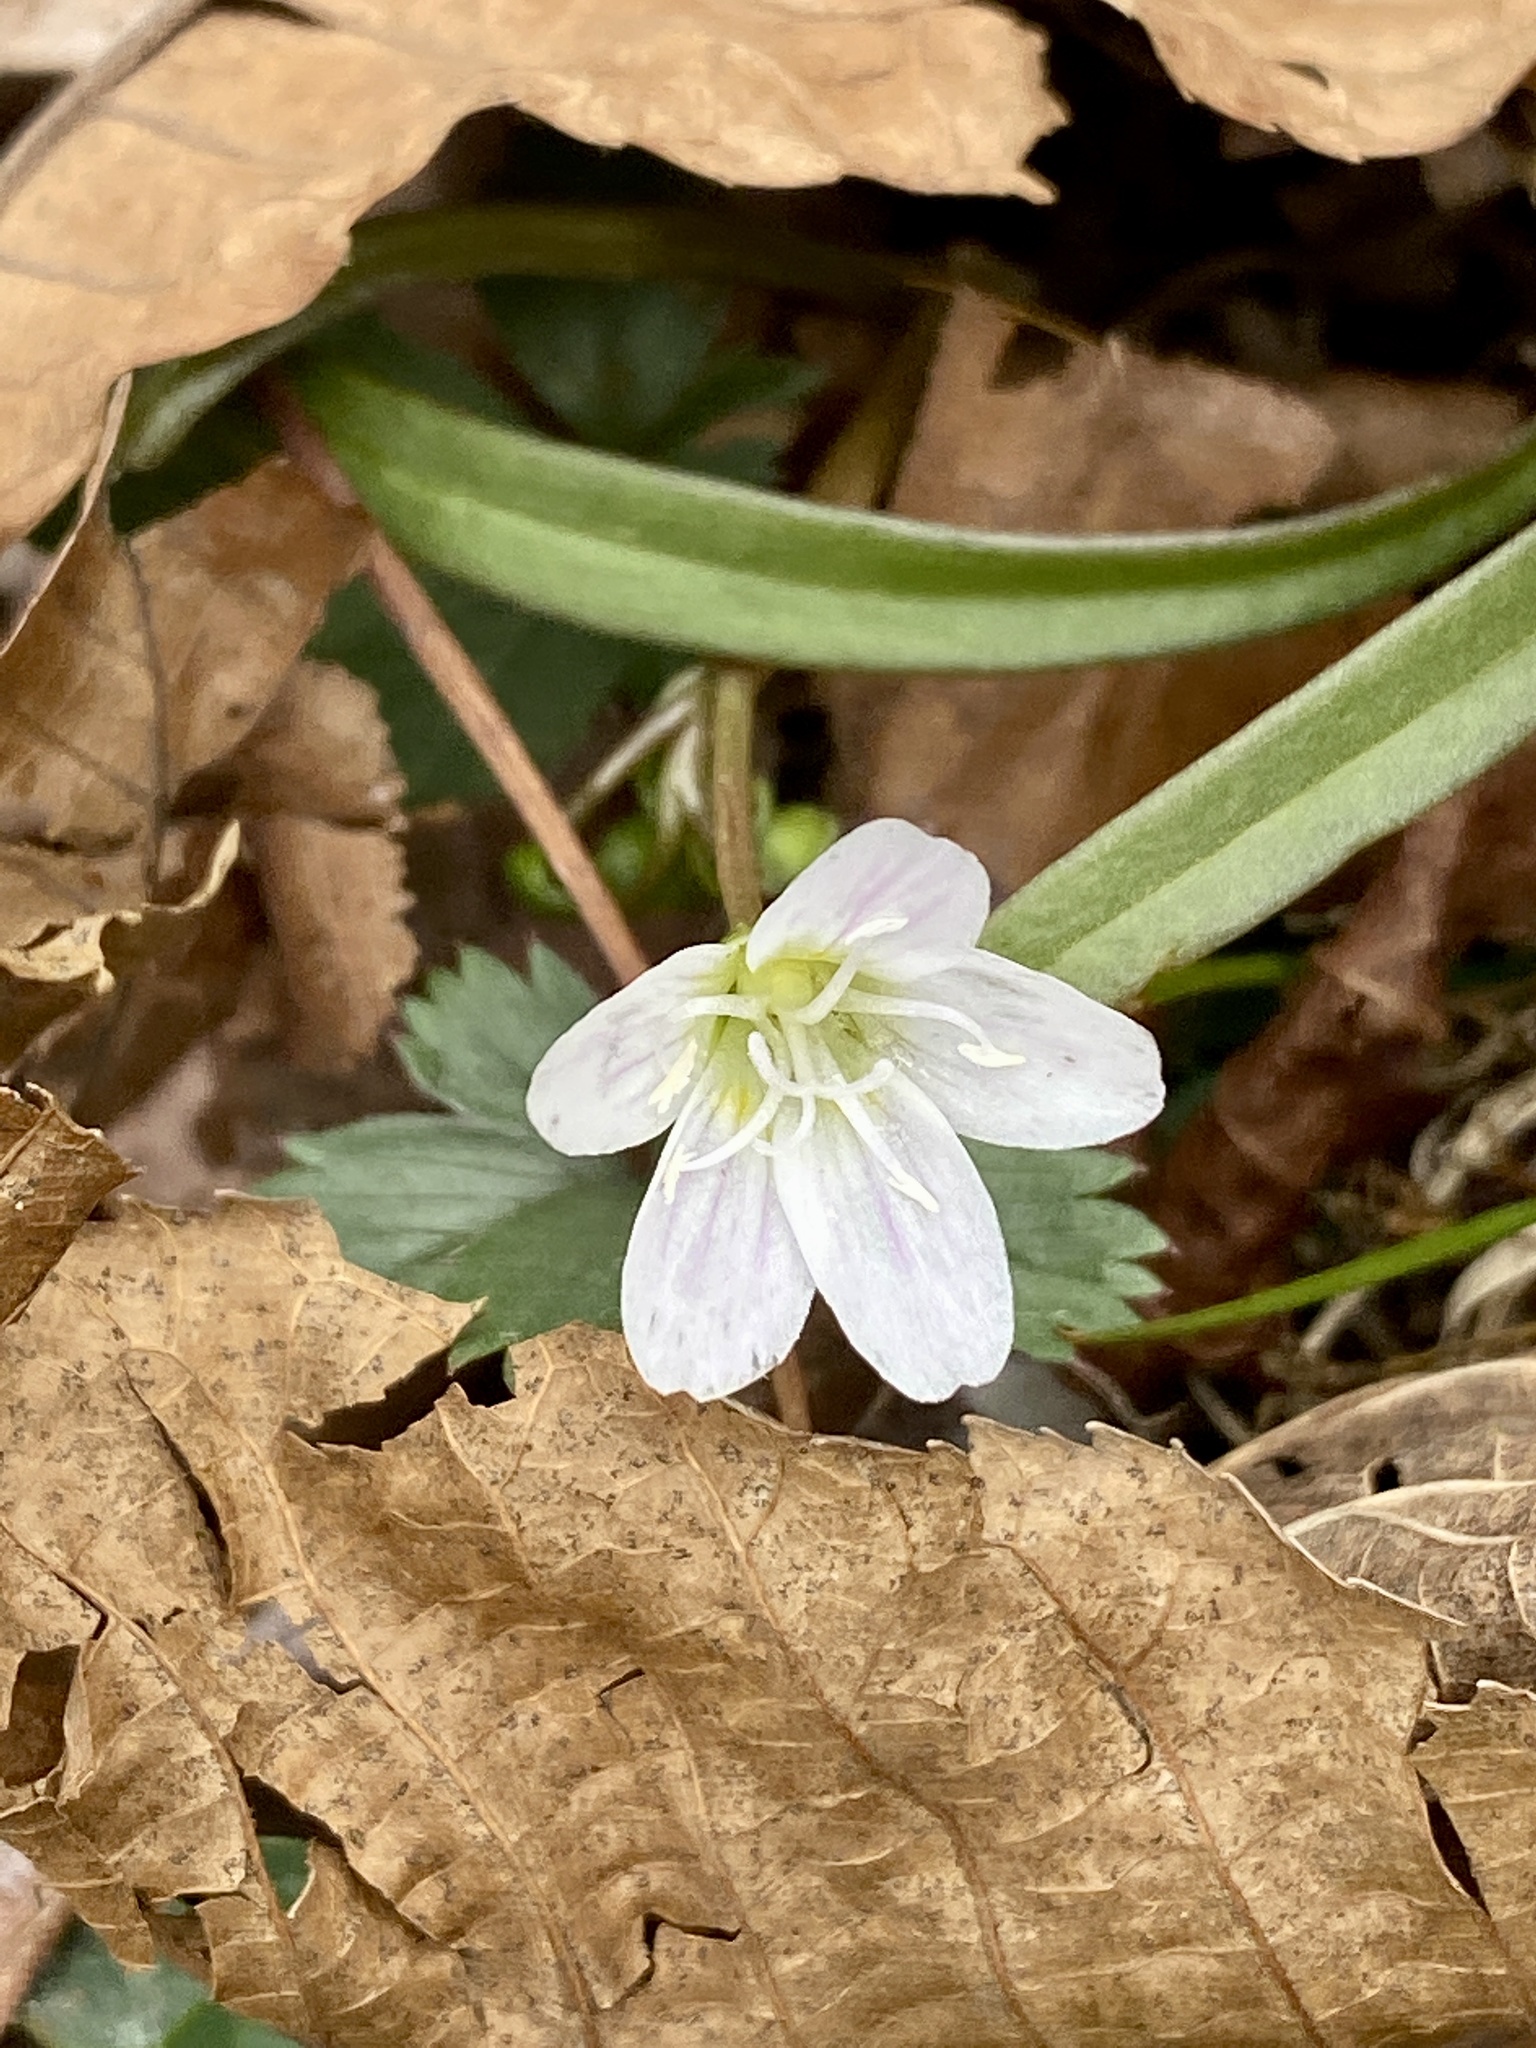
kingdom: Plantae
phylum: Tracheophyta
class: Magnoliopsida
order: Caryophyllales
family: Montiaceae
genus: Claytonia
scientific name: Claytonia virginica
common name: Virginia springbeauty
